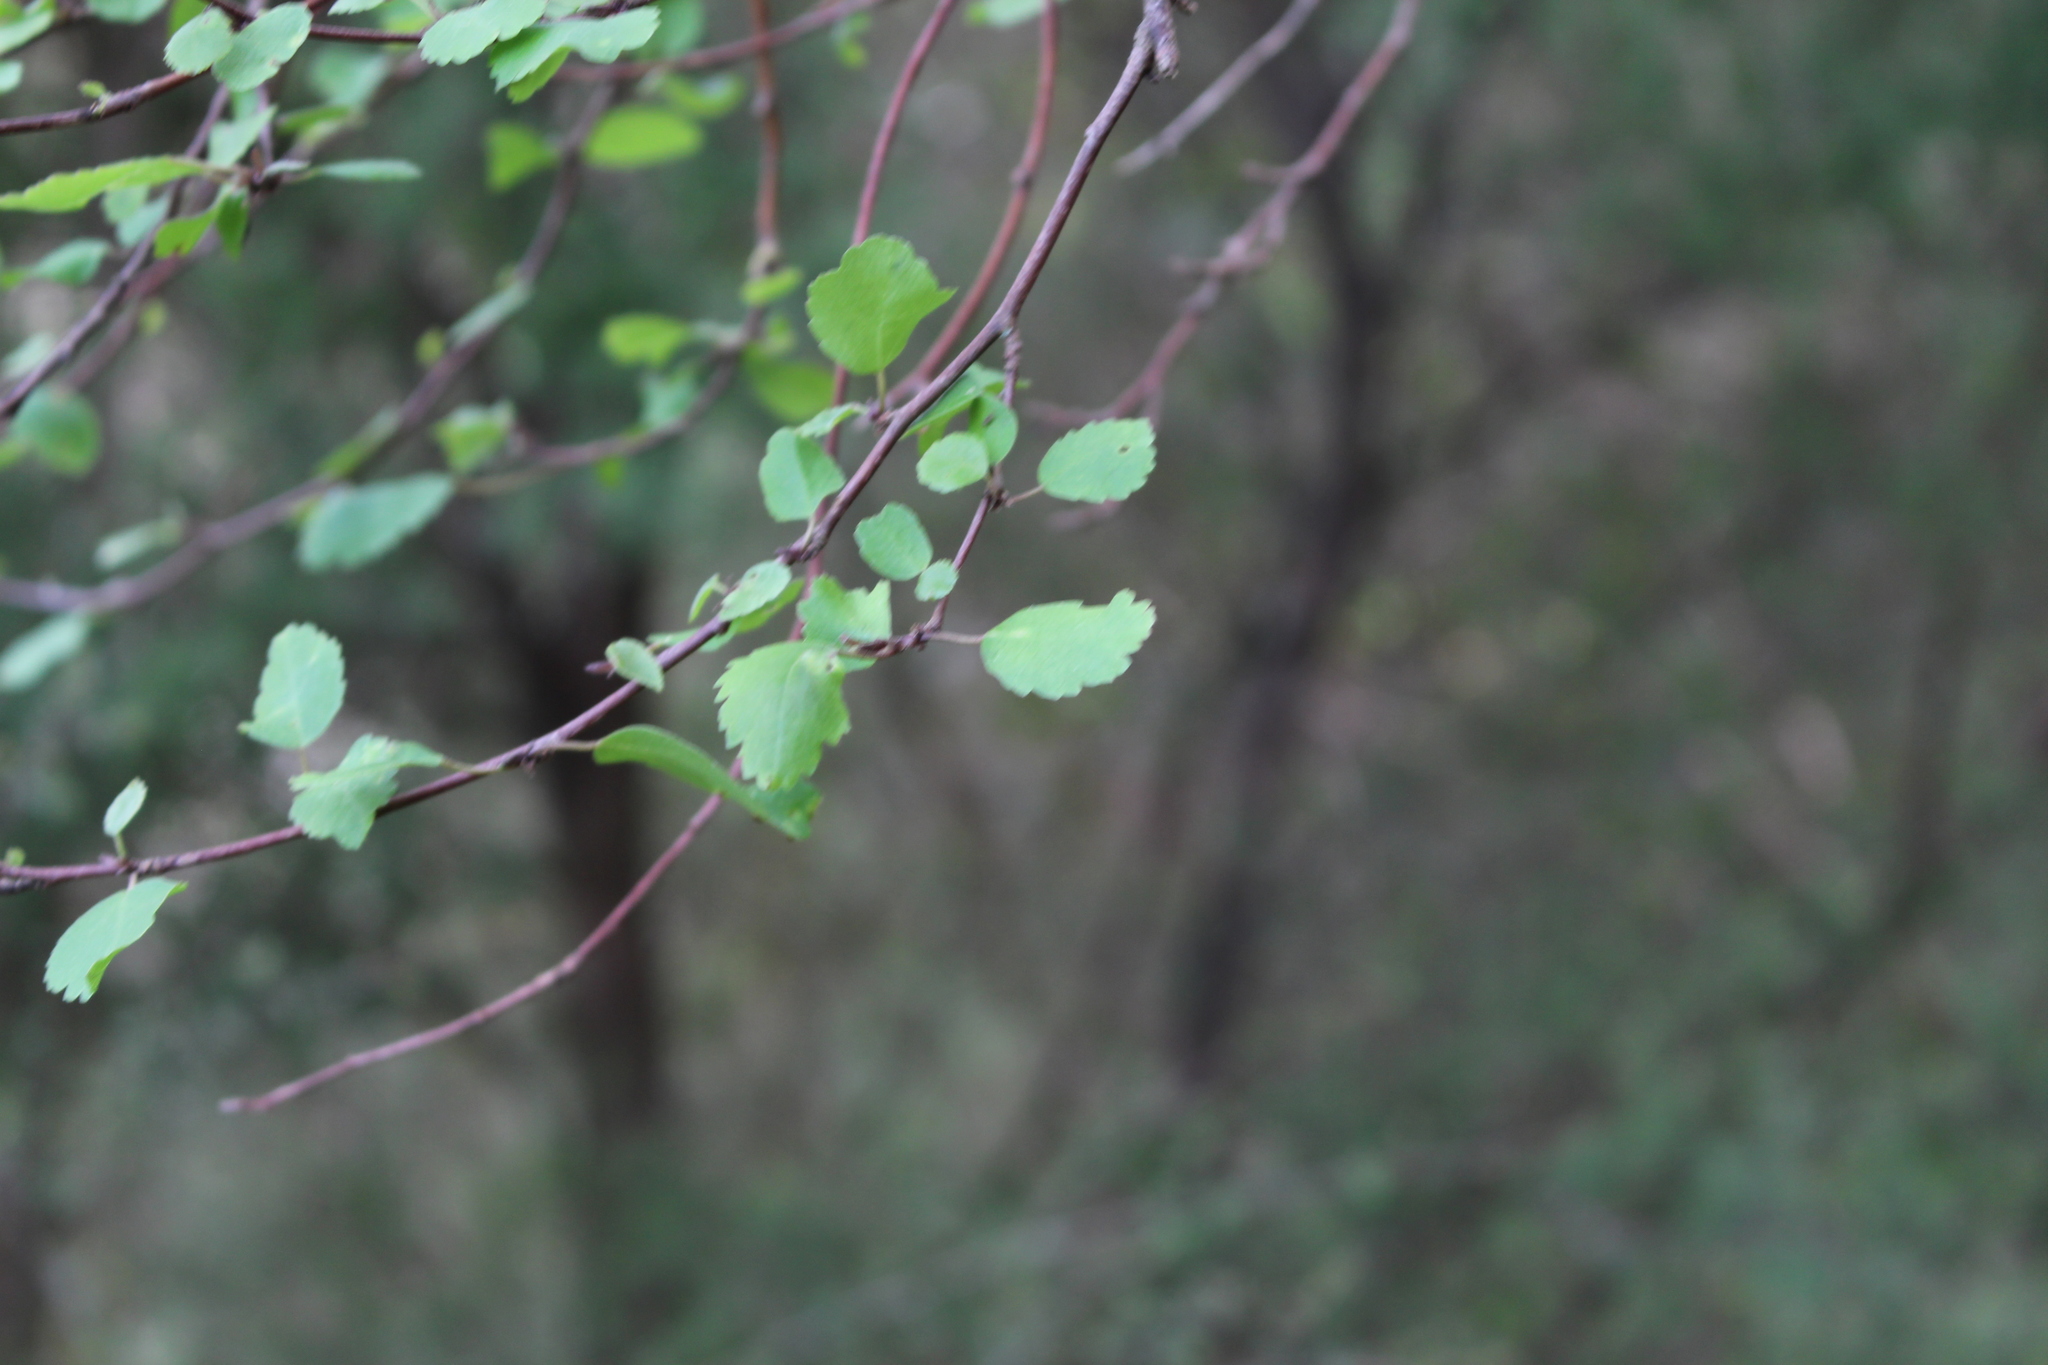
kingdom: Plantae
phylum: Tracheophyta
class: Magnoliopsida
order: Malvales
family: Malvaceae
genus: Plagianthus
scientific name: Plagianthus regius
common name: Manatu
